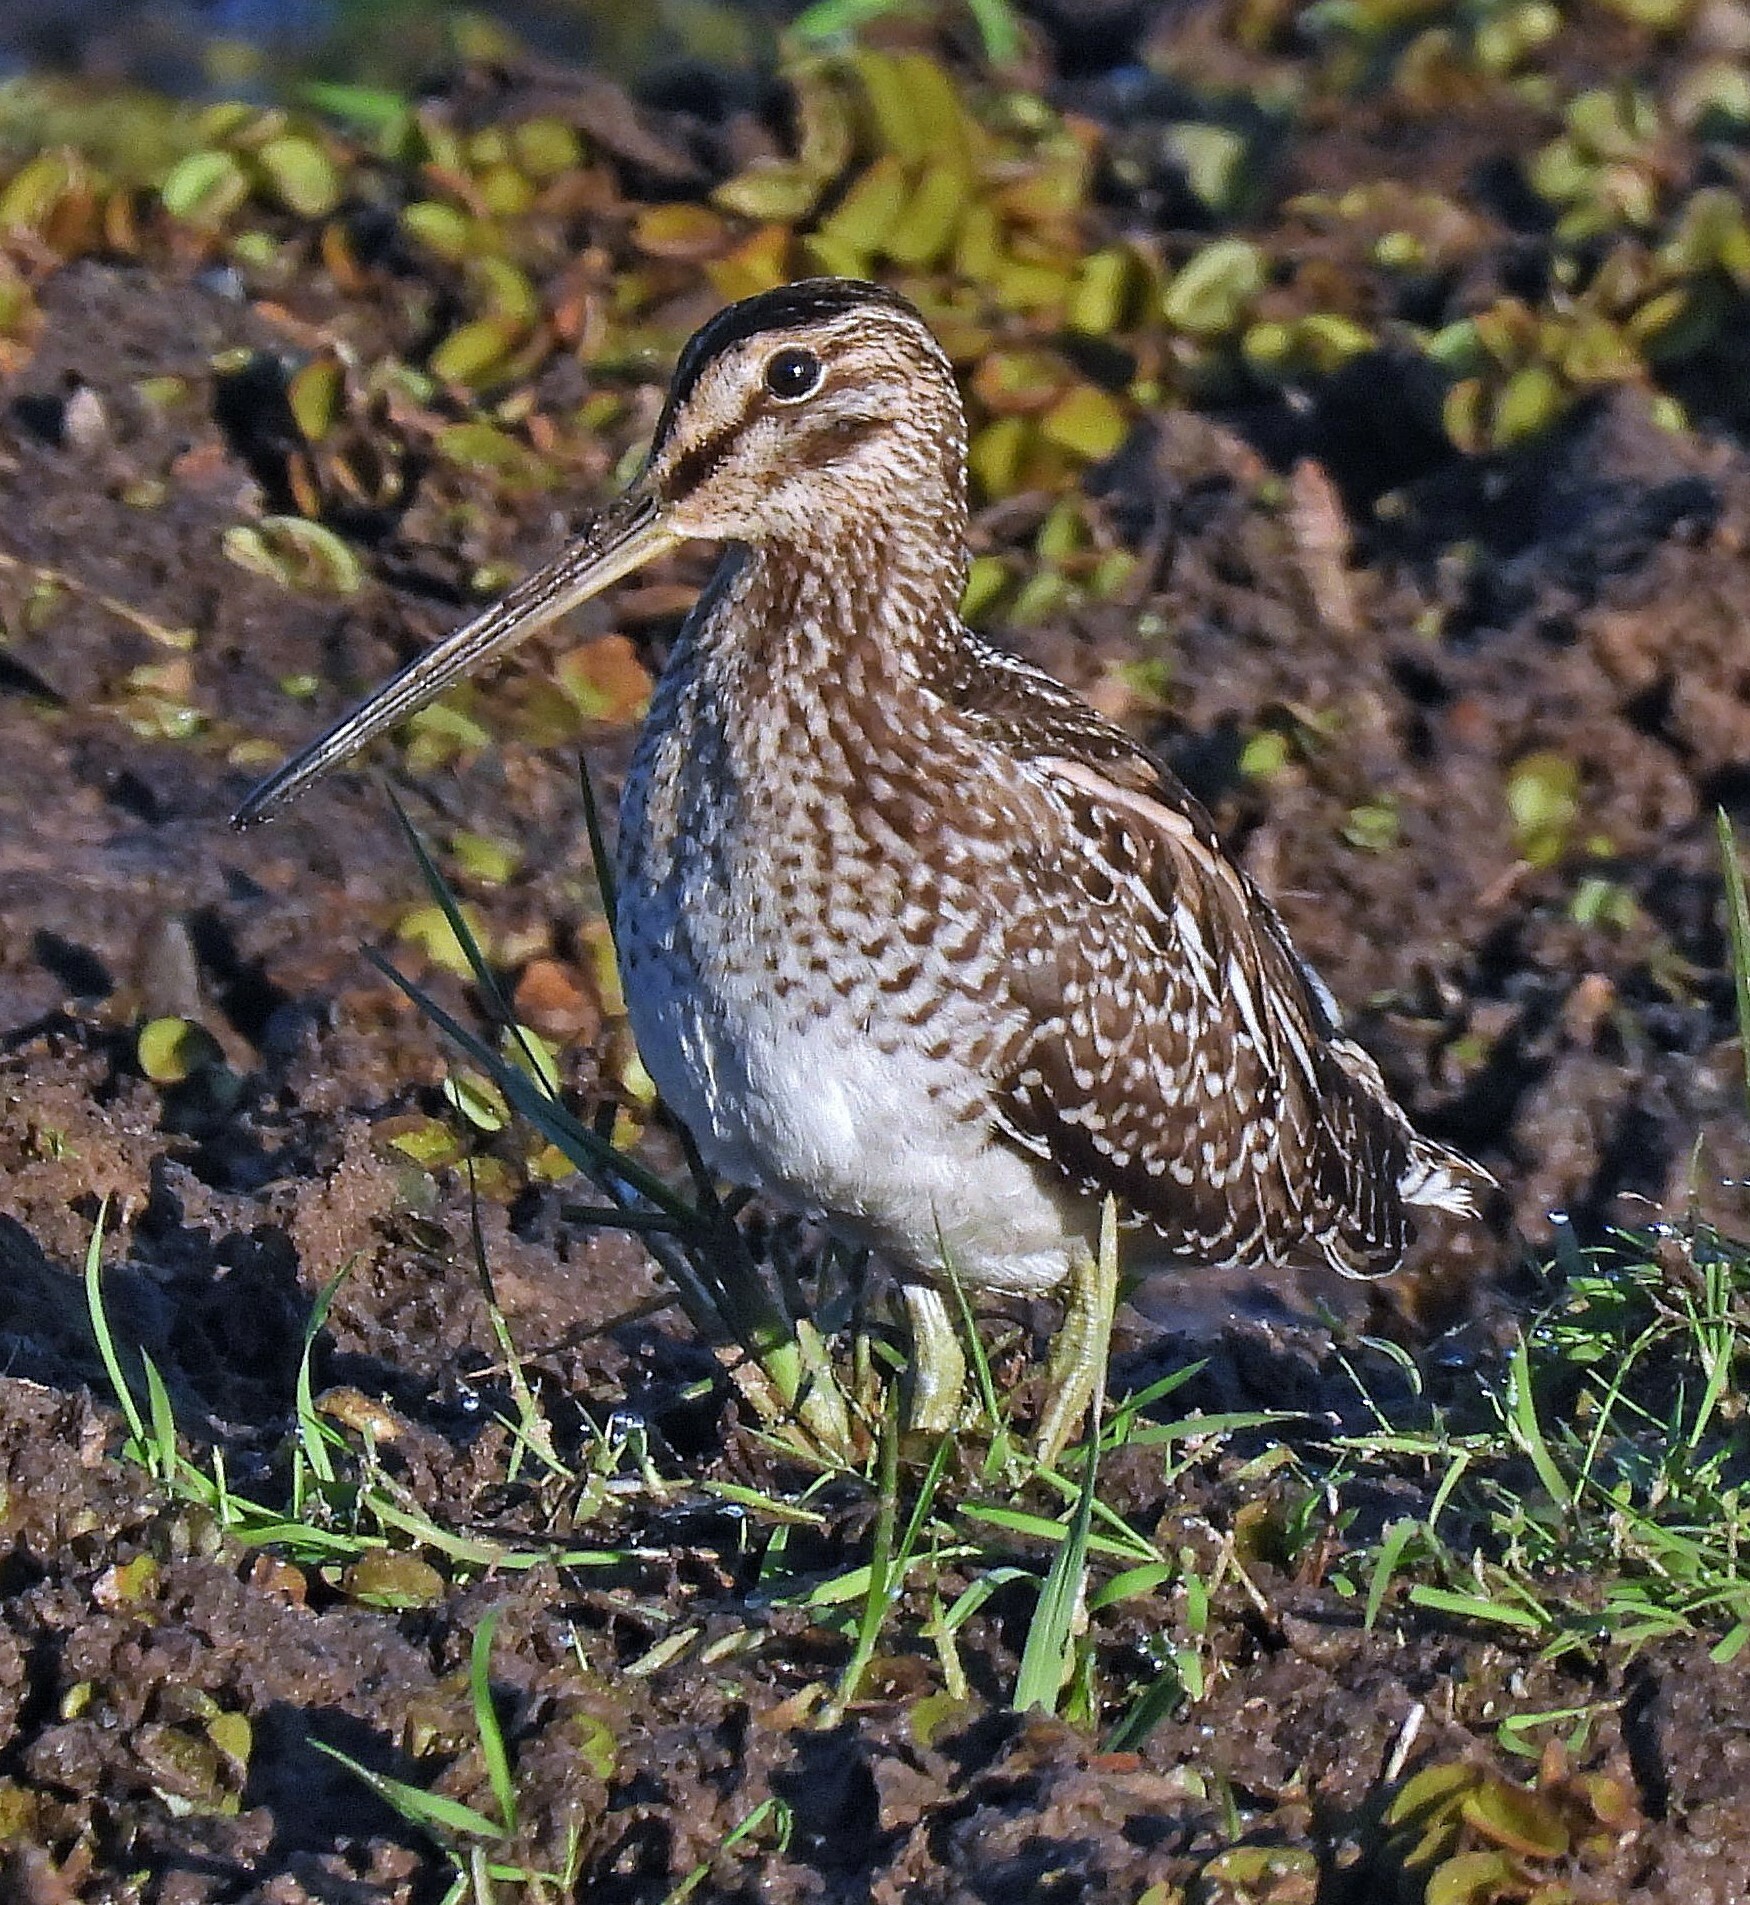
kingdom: Animalia
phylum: Chordata
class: Aves
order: Charadriiformes
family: Scolopacidae
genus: Gallinago
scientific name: Gallinago paraguaiae
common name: South american snipe
